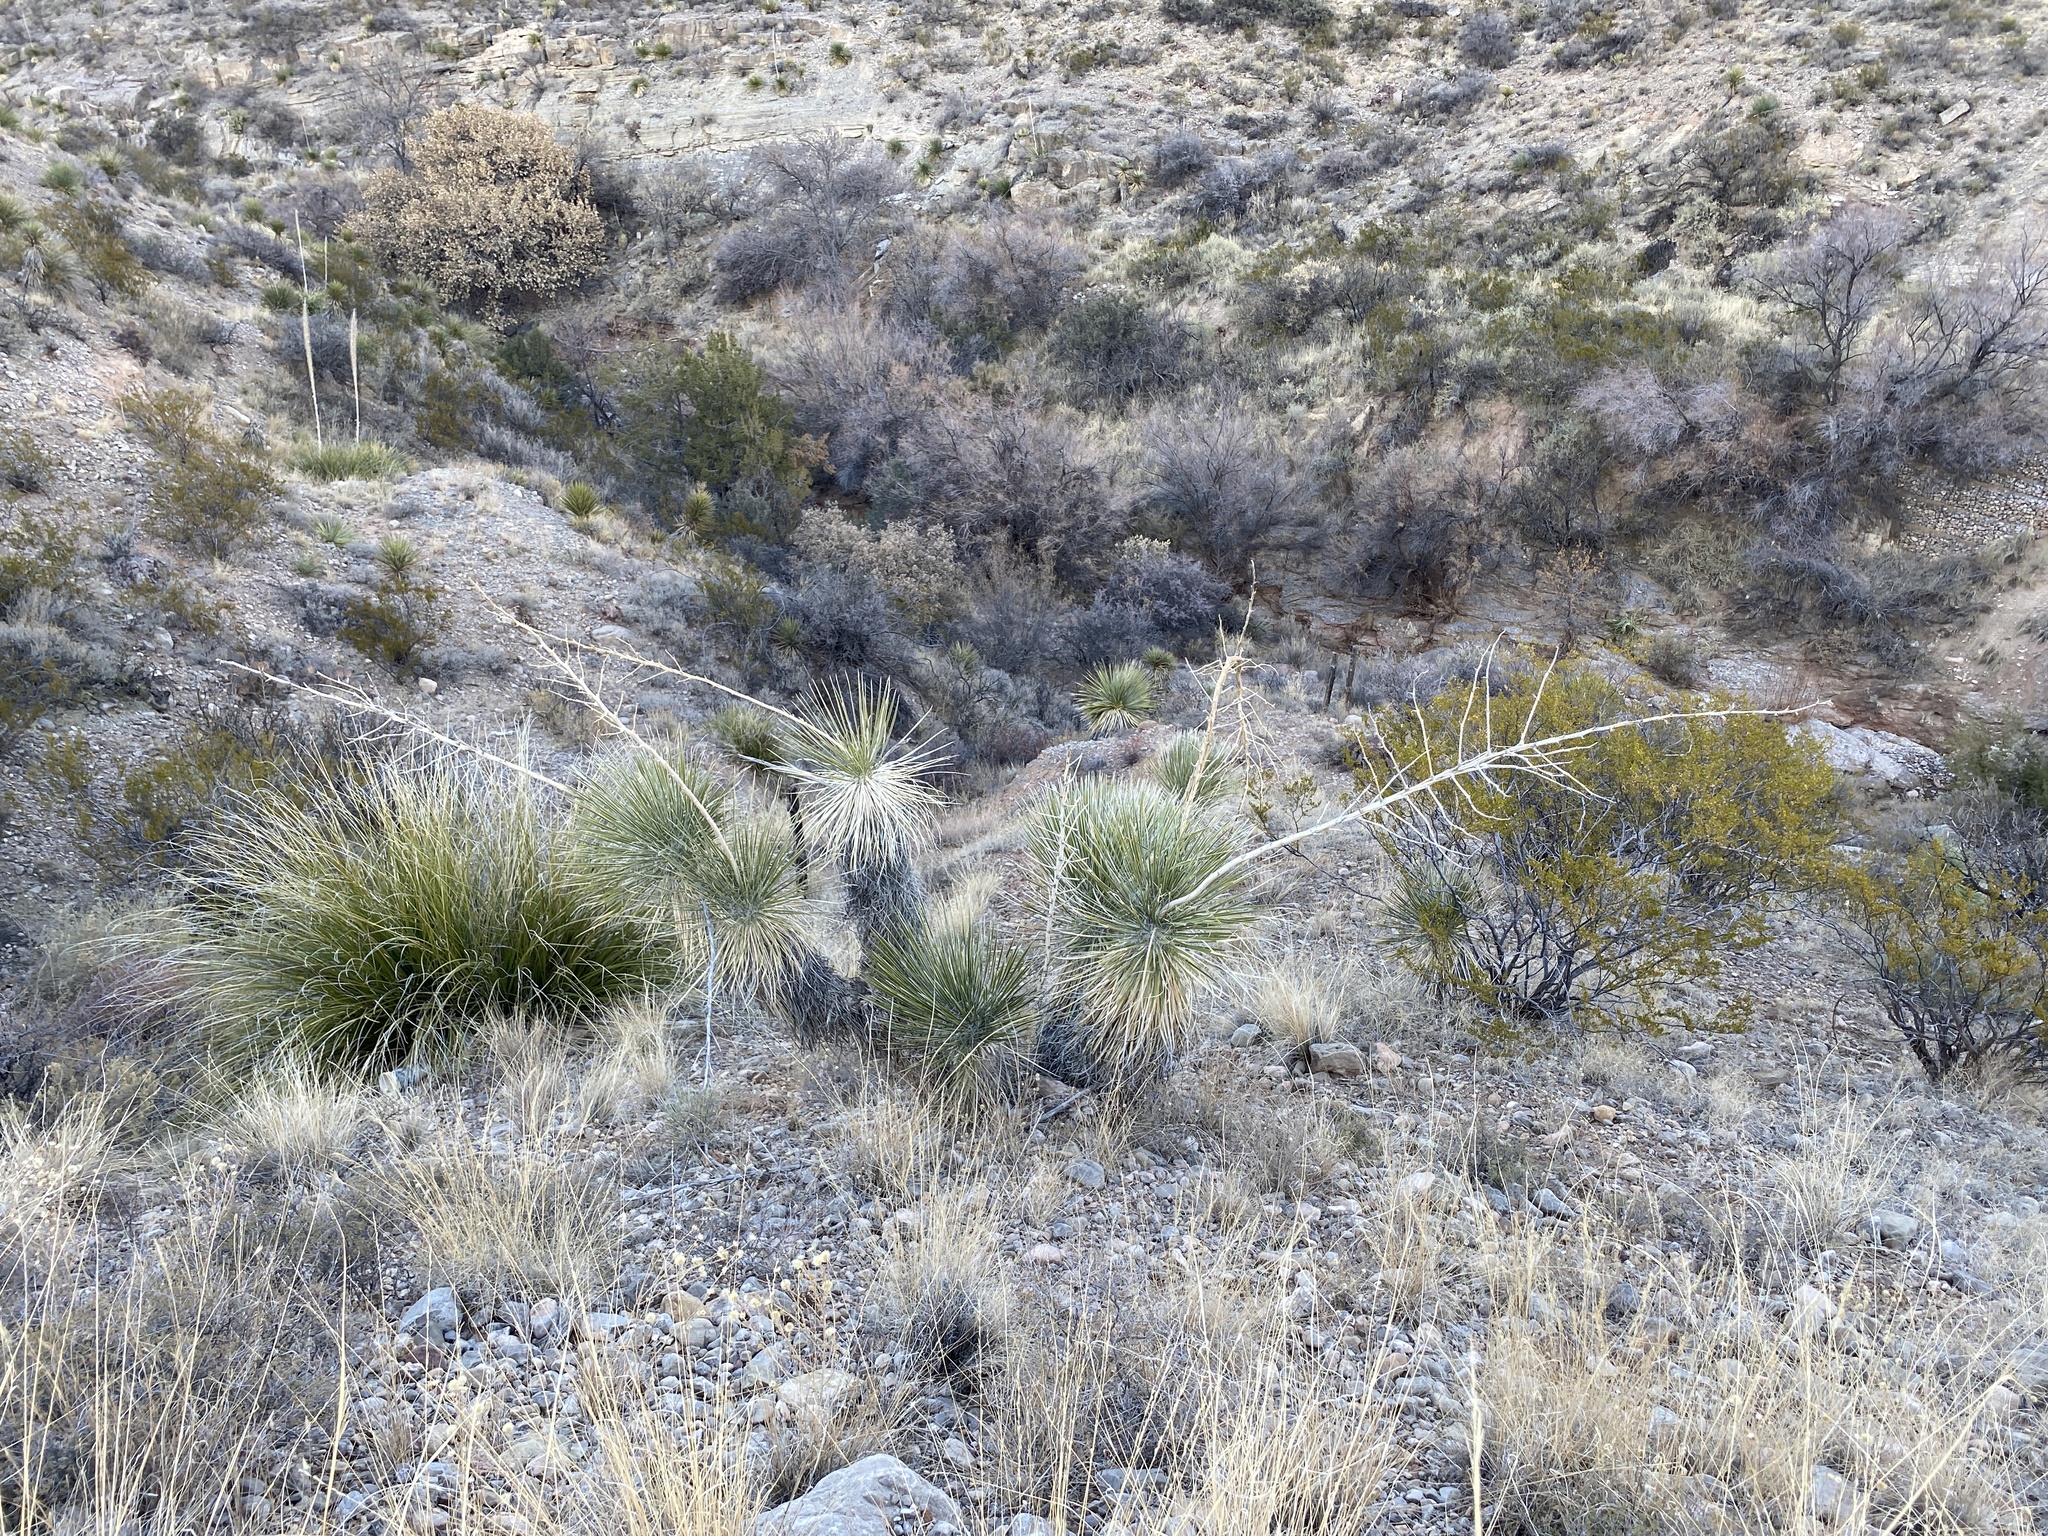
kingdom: Plantae
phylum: Tracheophyta
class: Liliopsida
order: Asparagales
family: Asparagaceae
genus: Yucca
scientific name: Yucca elata
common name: Palmella
